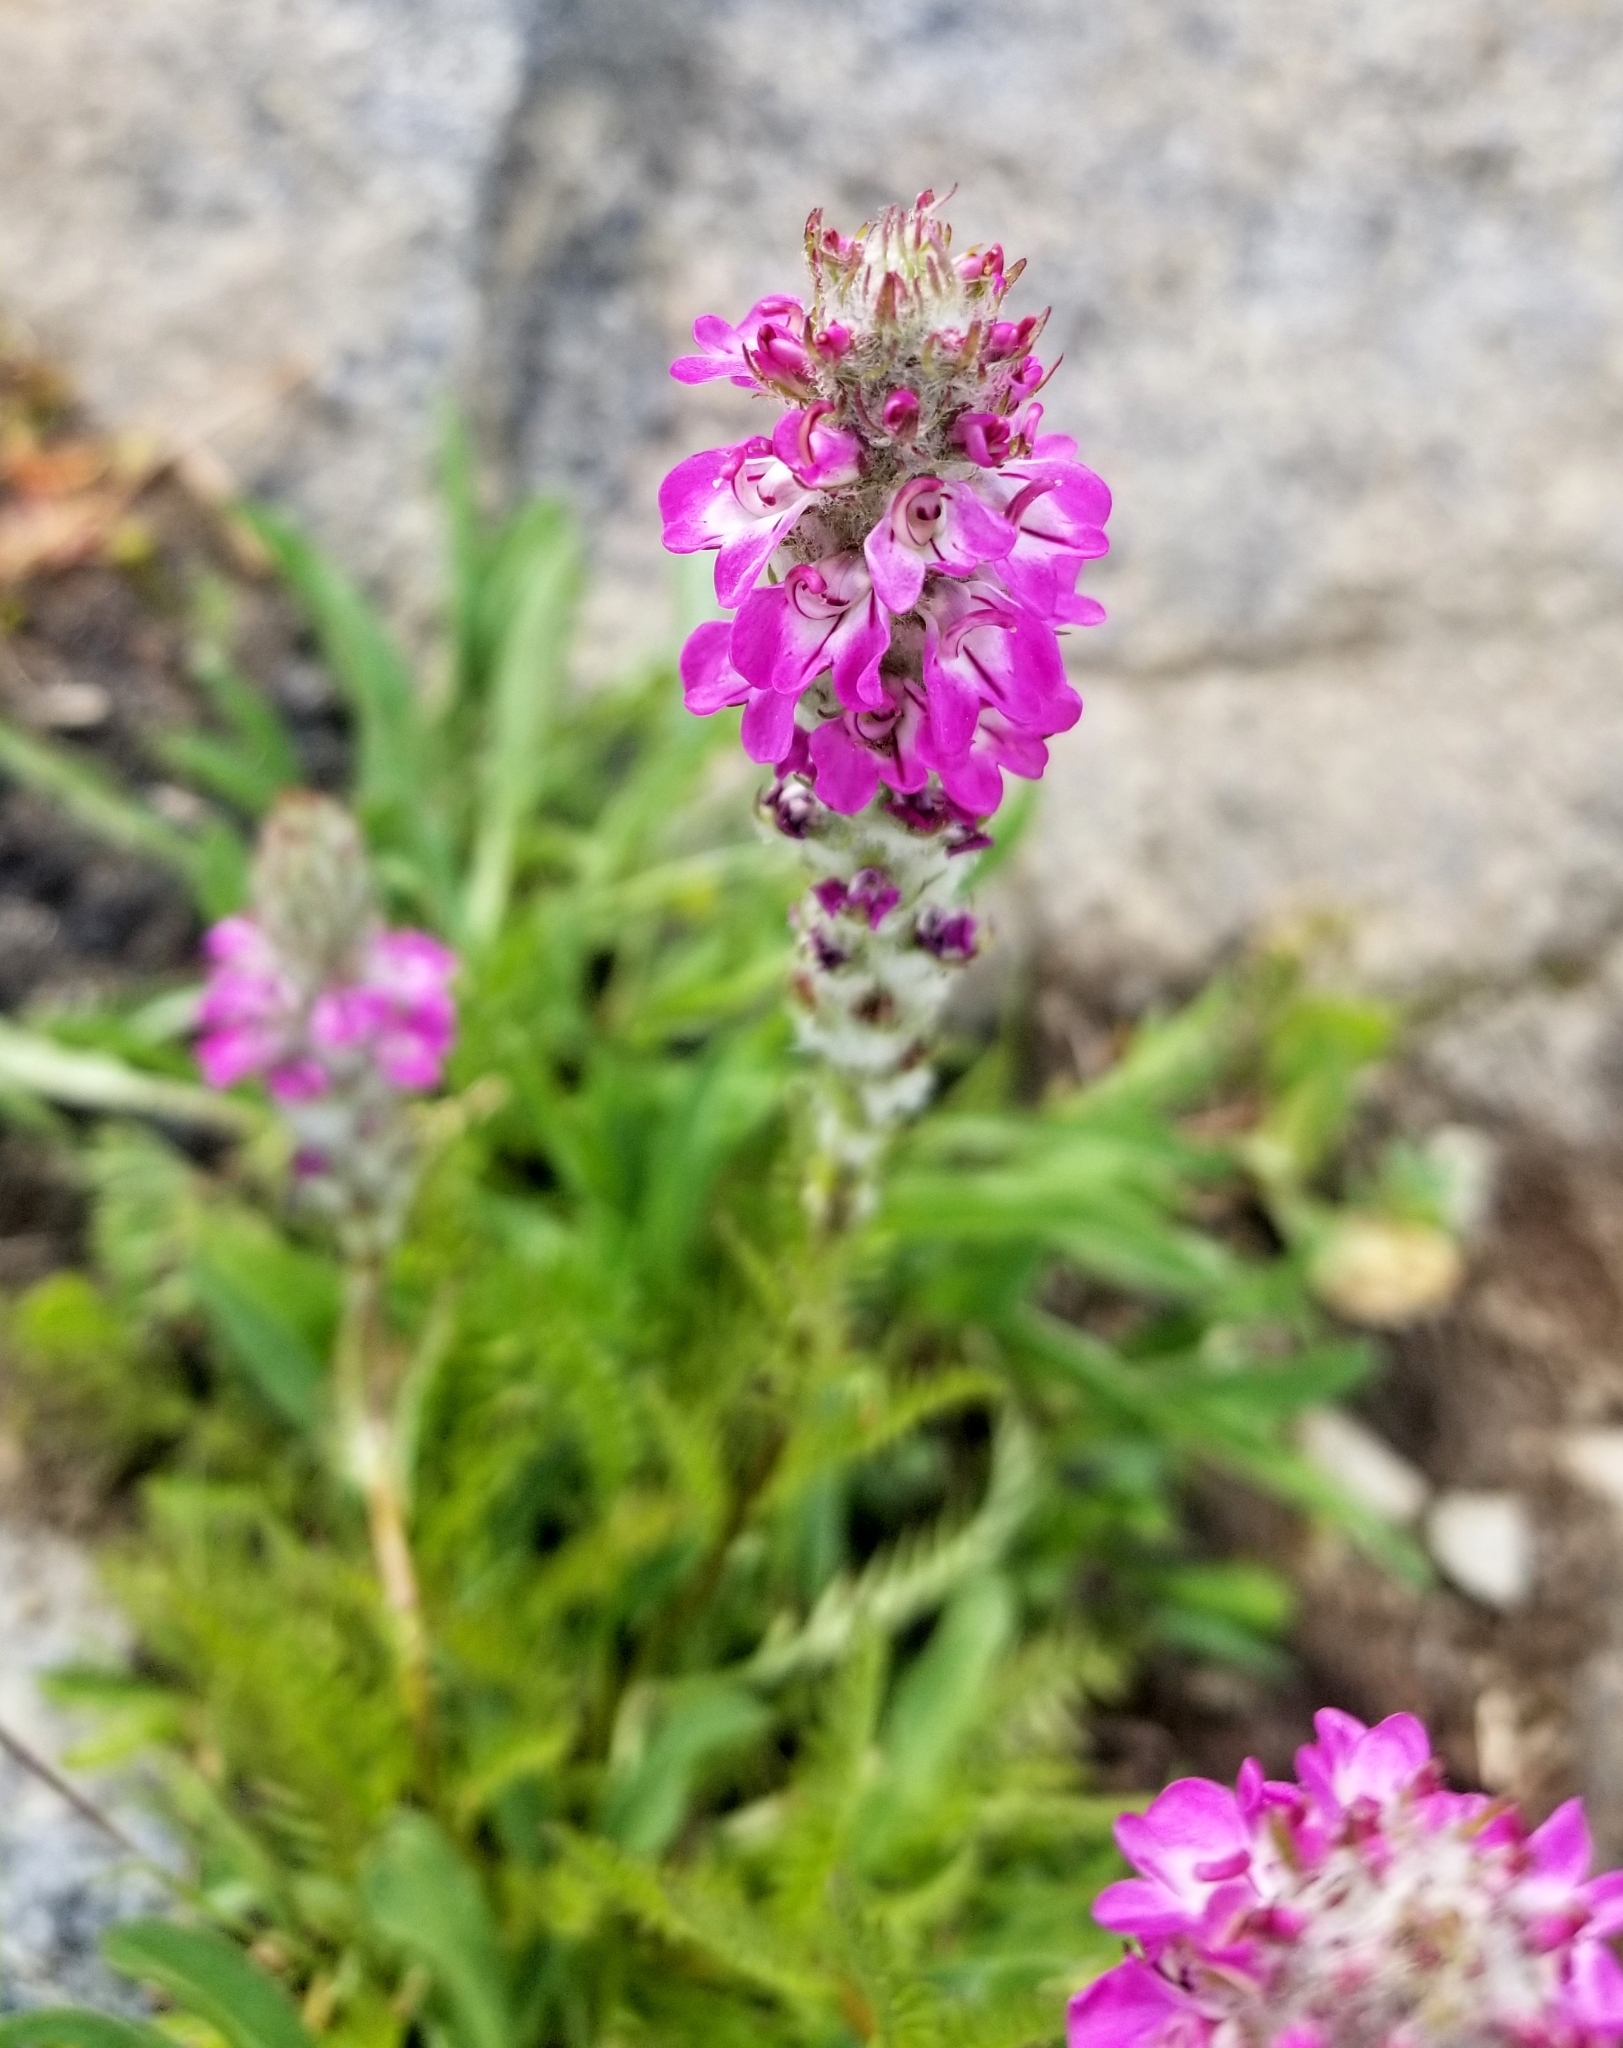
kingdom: Plantae
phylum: Tracheophyta
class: Magnoliopsida
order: Lamiales
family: Orobanchaceae
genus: Pedicularis
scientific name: Pedicularis attollens
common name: Slender pedicularis
